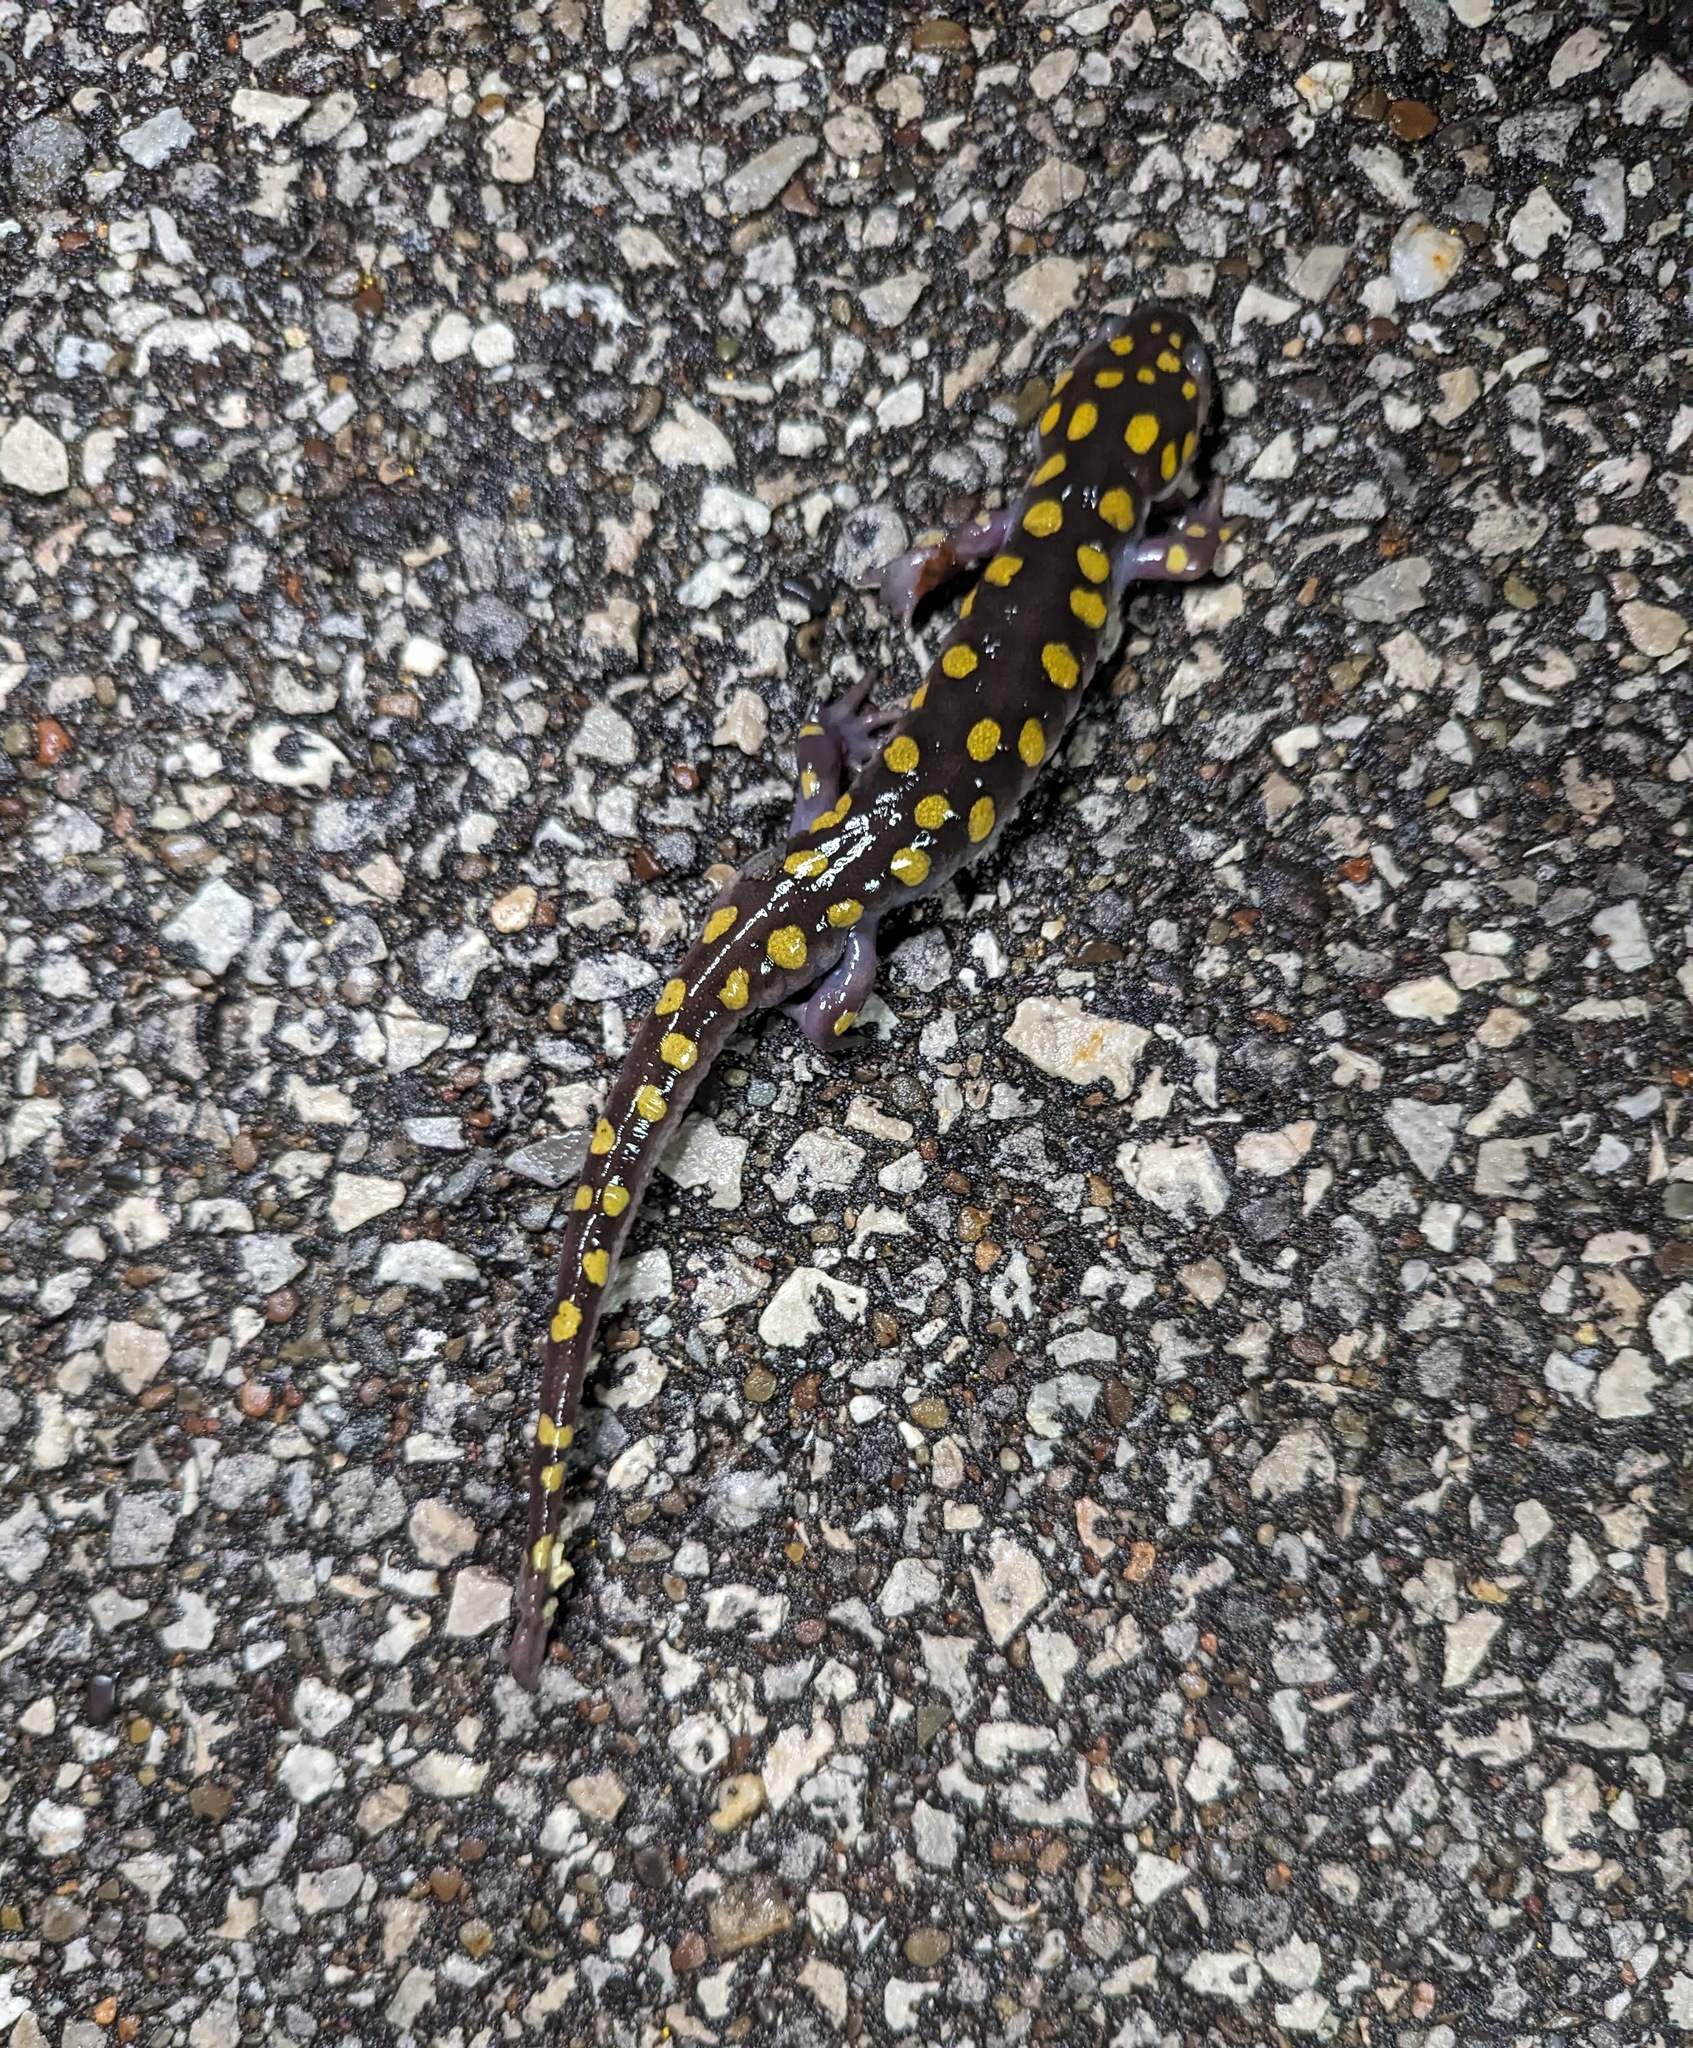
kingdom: Animalia
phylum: Chordata
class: Amphibia
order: Caudata
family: Ambystomatidae
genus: Ambystoma
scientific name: Ambystoma maculatum
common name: Spotted salamander
